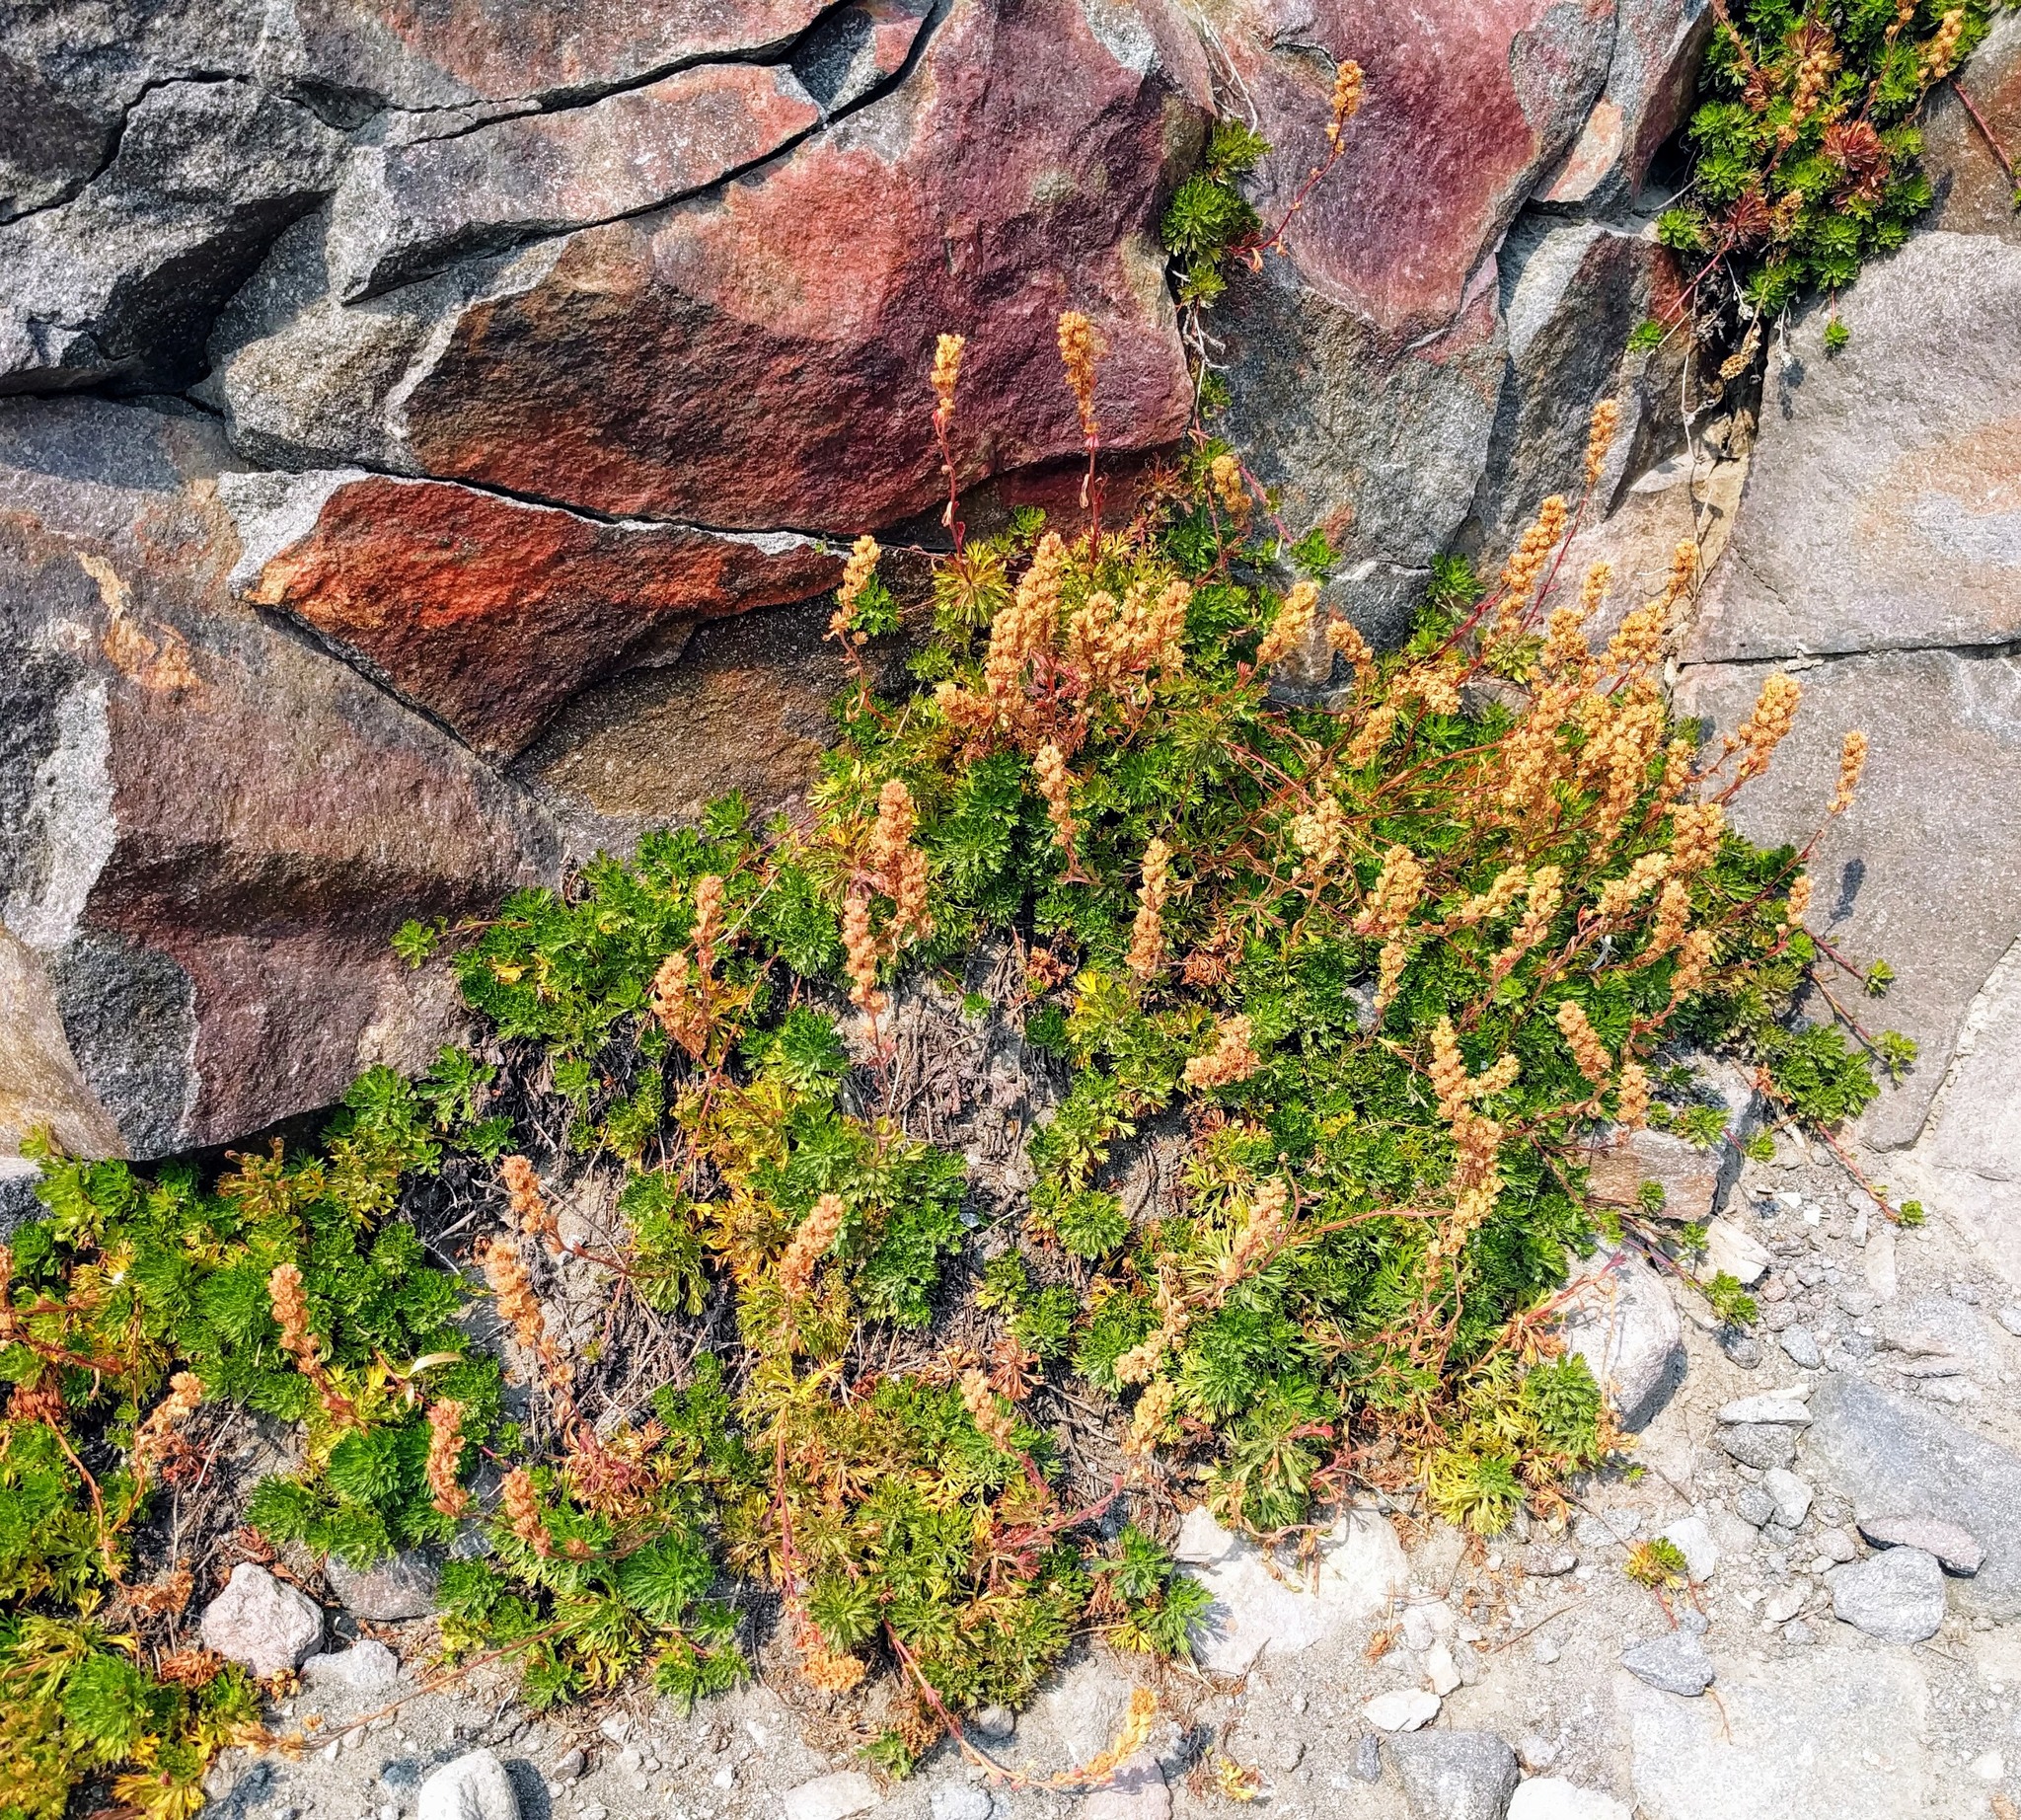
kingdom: Plantae
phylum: Tracheophyta
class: Magnoliopsida
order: Rosales
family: Rosaceae
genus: Luetkea
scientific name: Luetkea pectinata
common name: Partridgefoot
